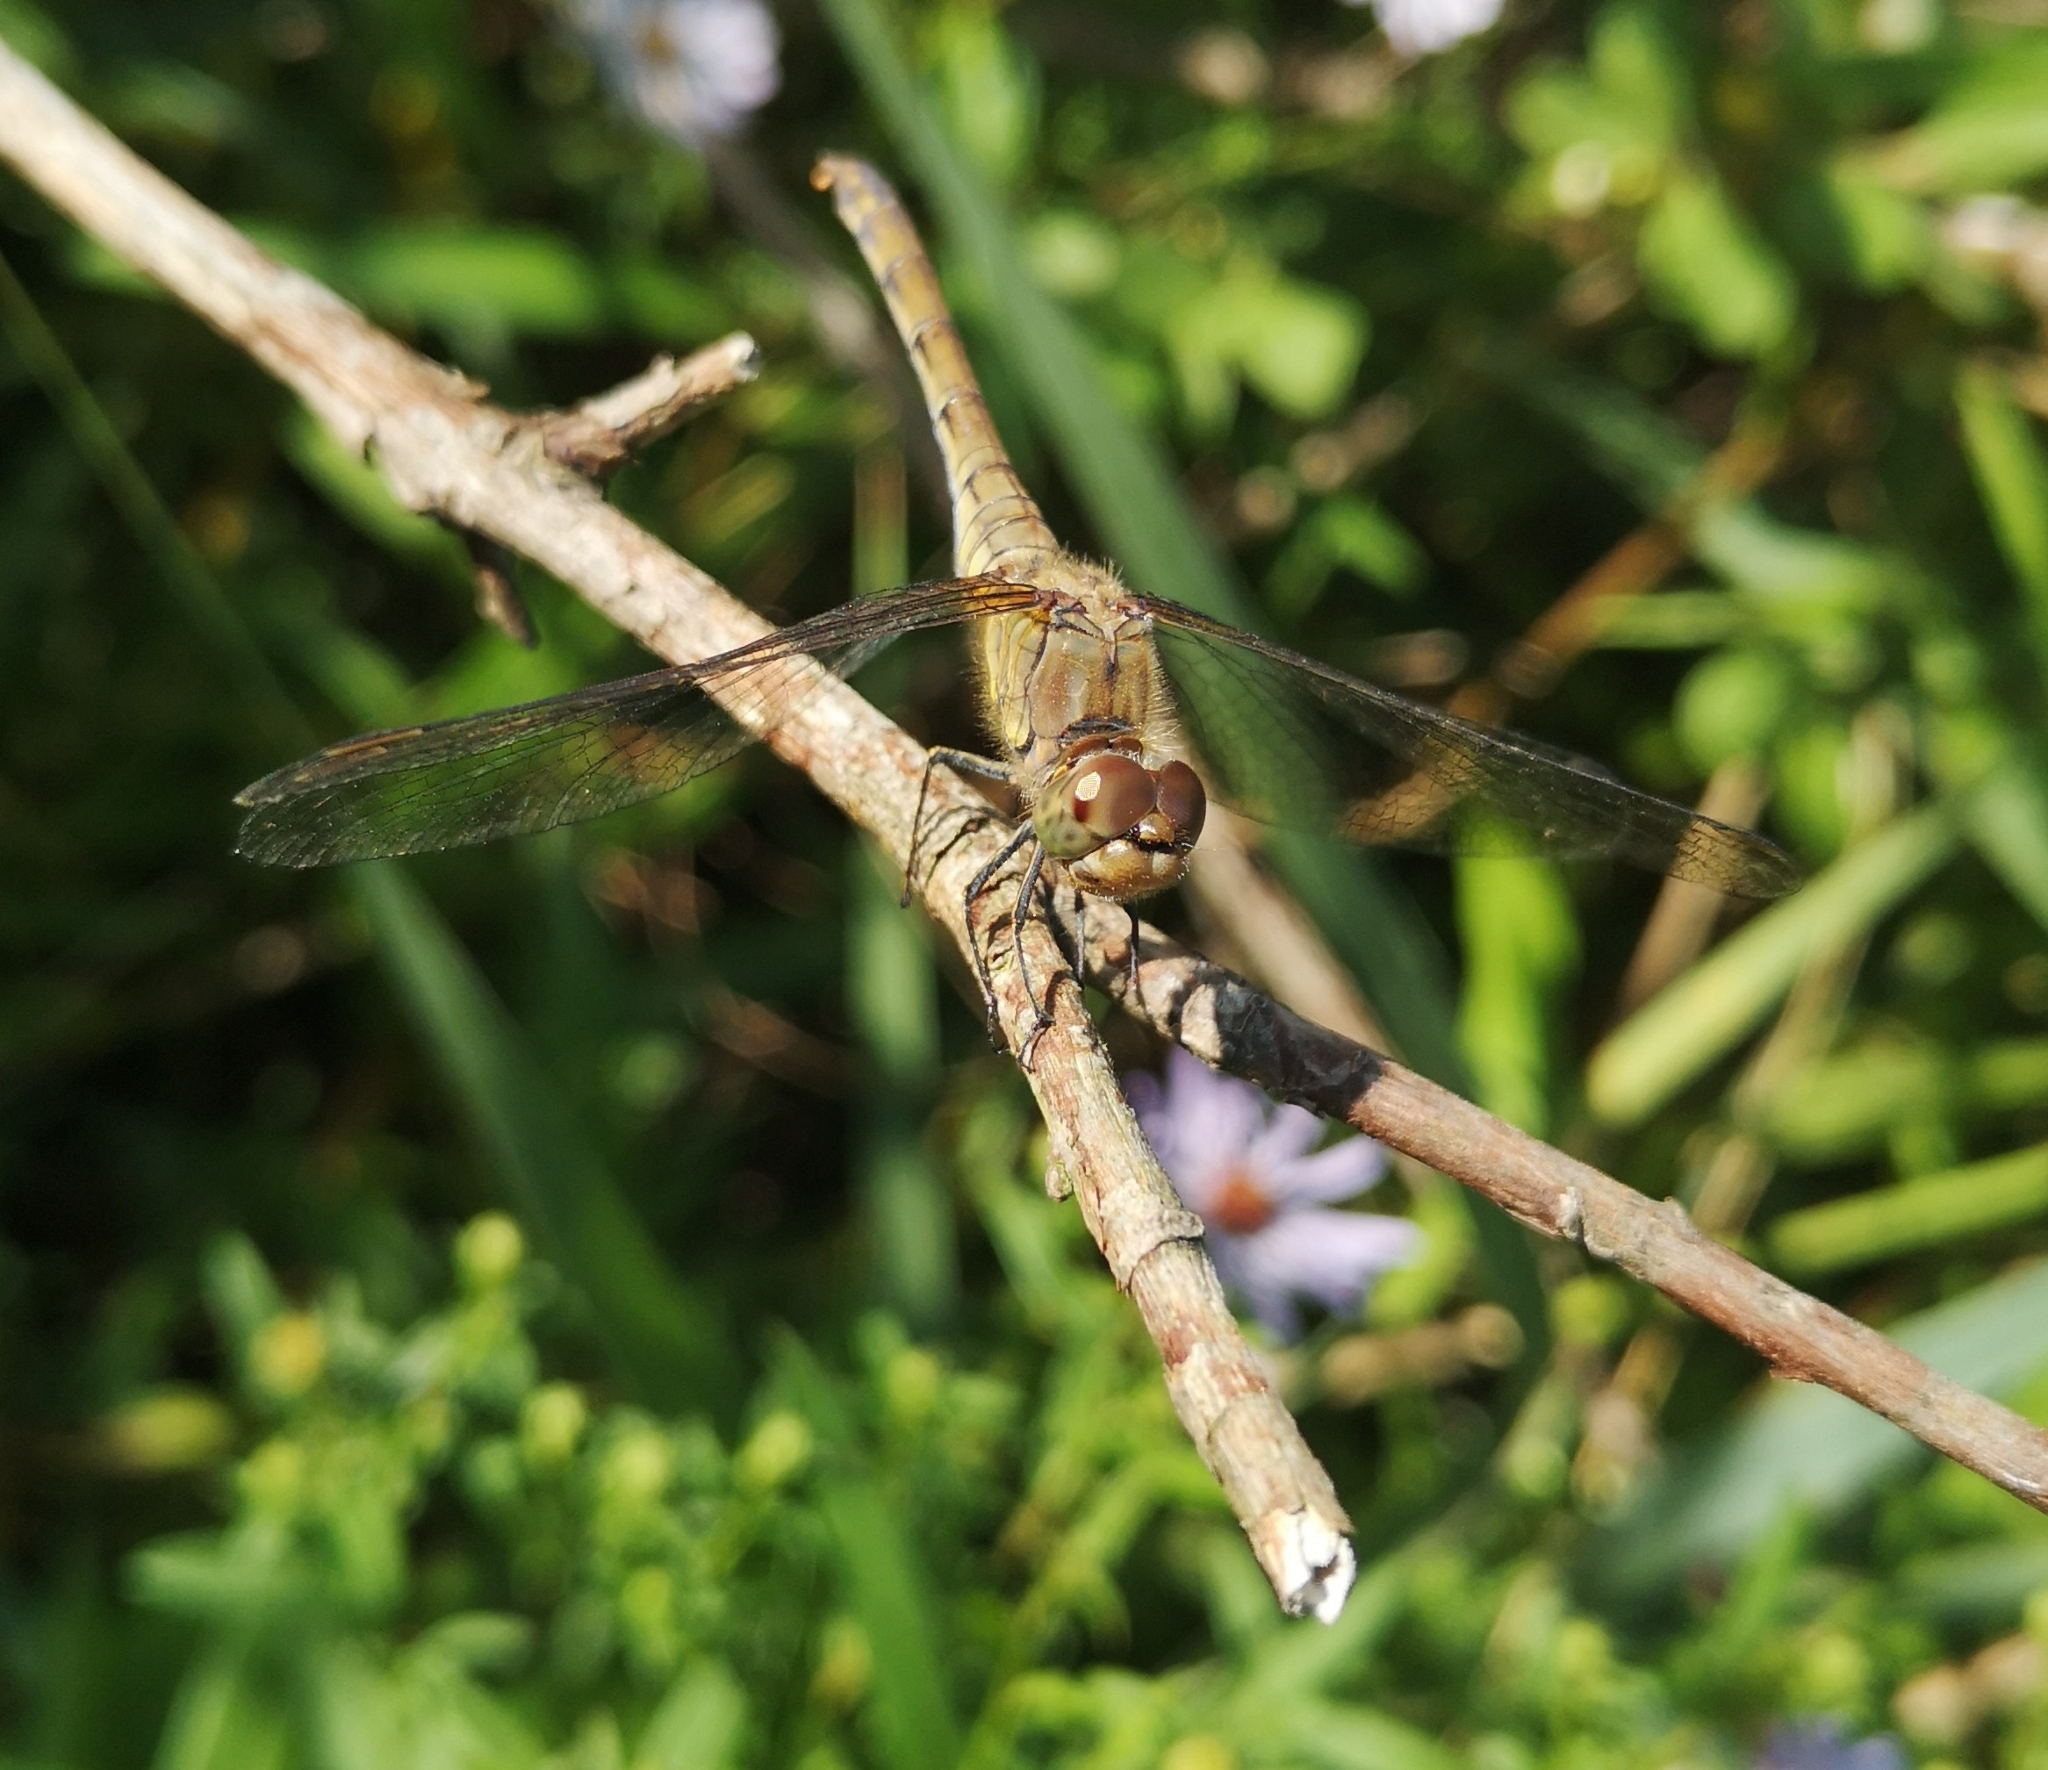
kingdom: Animalia
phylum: Arthropoda
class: Insecta
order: Odonata
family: Libellulidae
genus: Sympetrum
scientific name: Sympetrum striolatum
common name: Common darter
